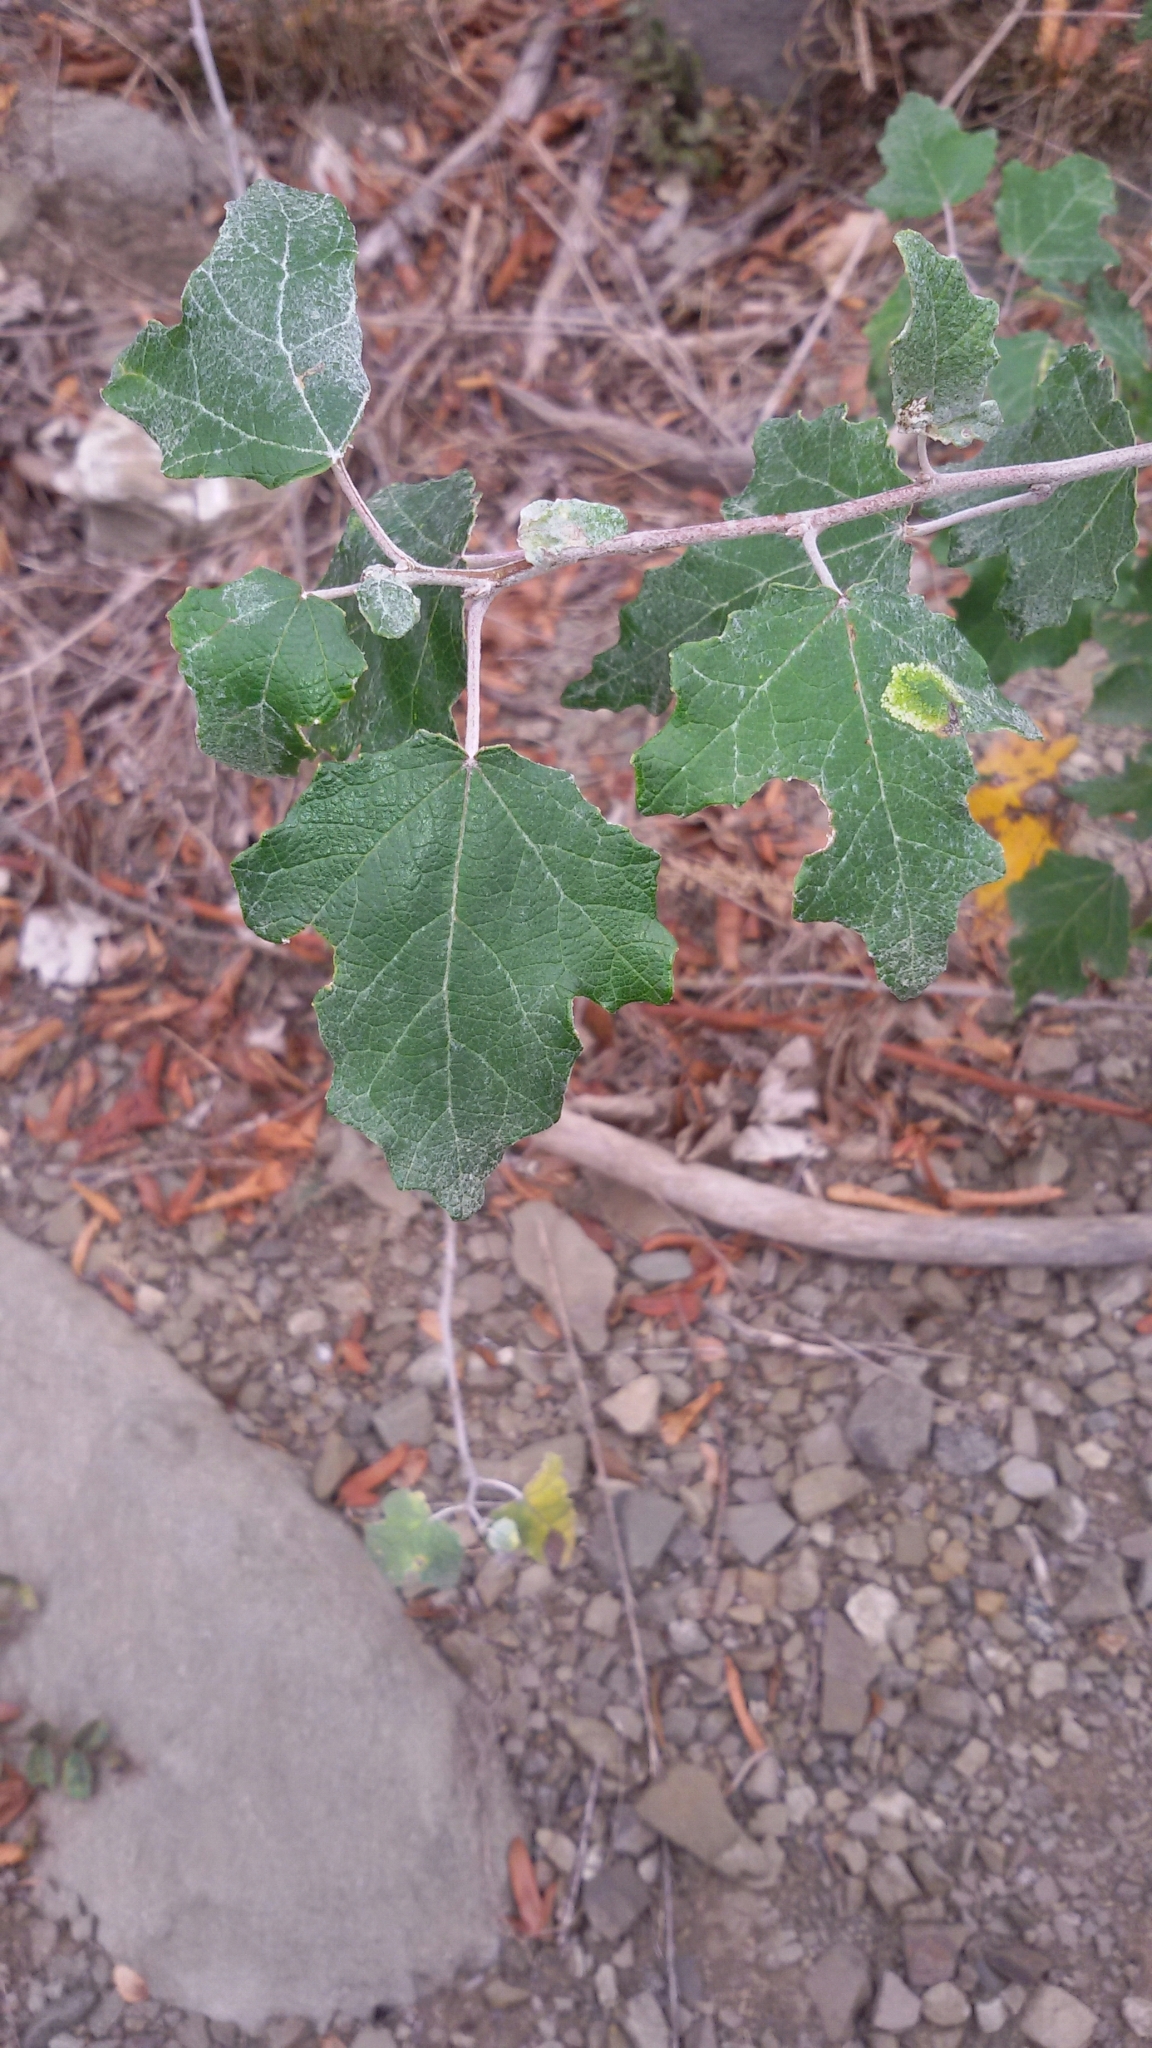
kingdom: Plantae
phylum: Tracheophyta
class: Magnoliopsida
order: Malpighiales
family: Salicaceae
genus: Populus
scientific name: Populus alba
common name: White poplar
